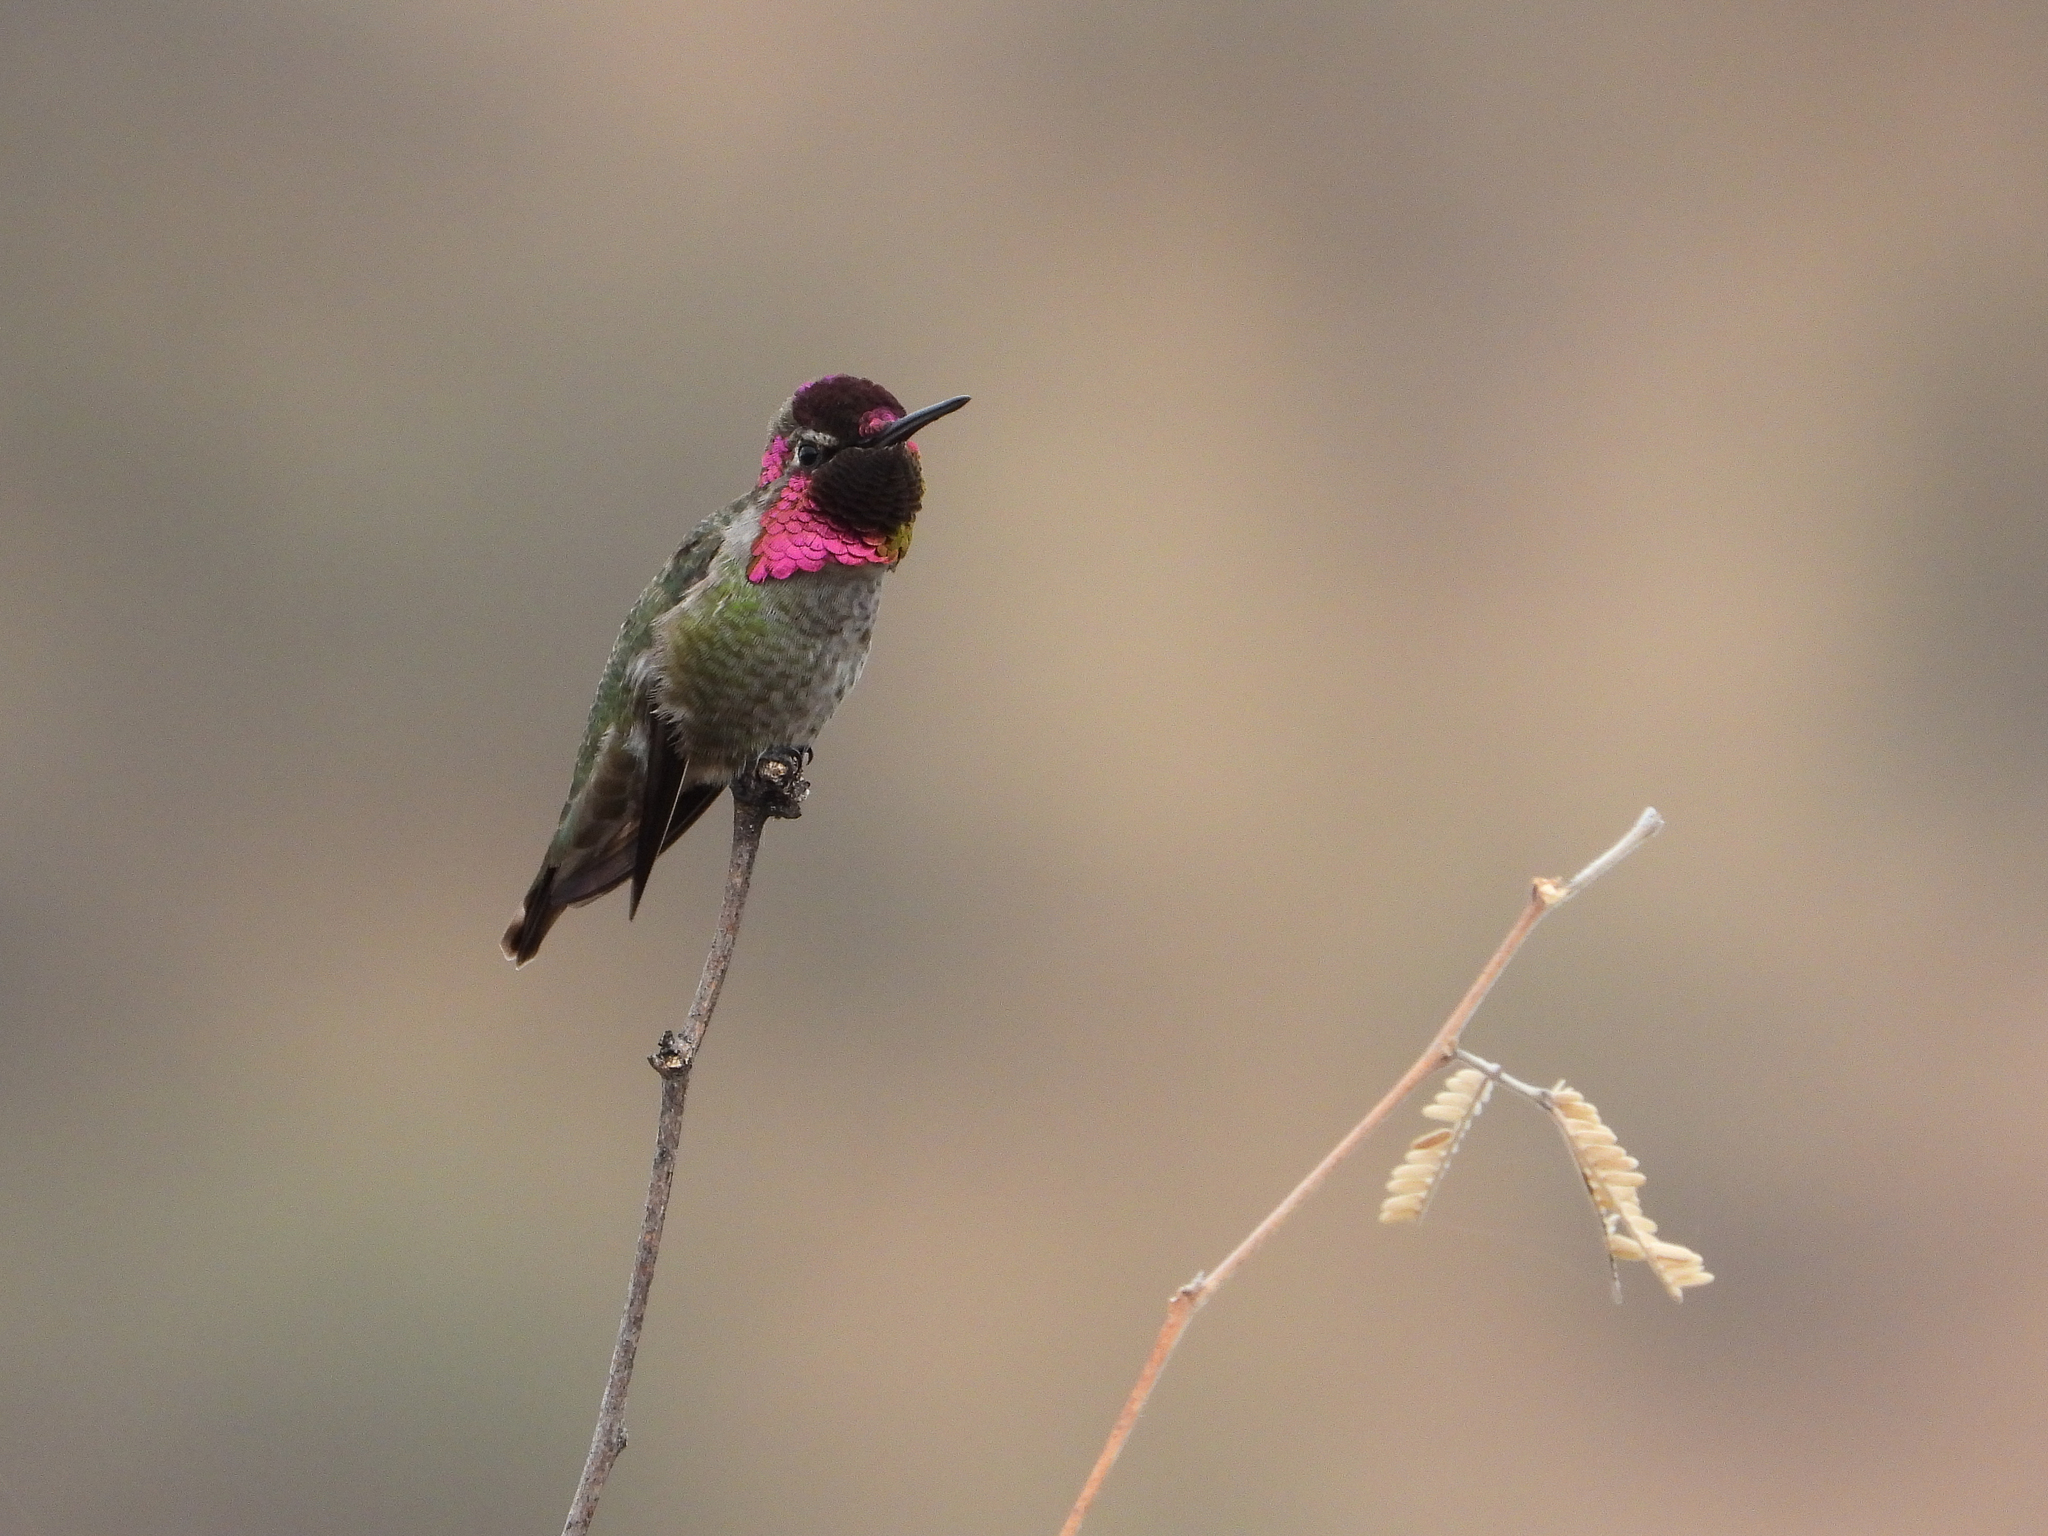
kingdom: Animalia
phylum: Chordata
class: Aves
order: Apodiformes
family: Trochilidae
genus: Calypte
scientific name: Calypte anna
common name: Anna's hummingbird
